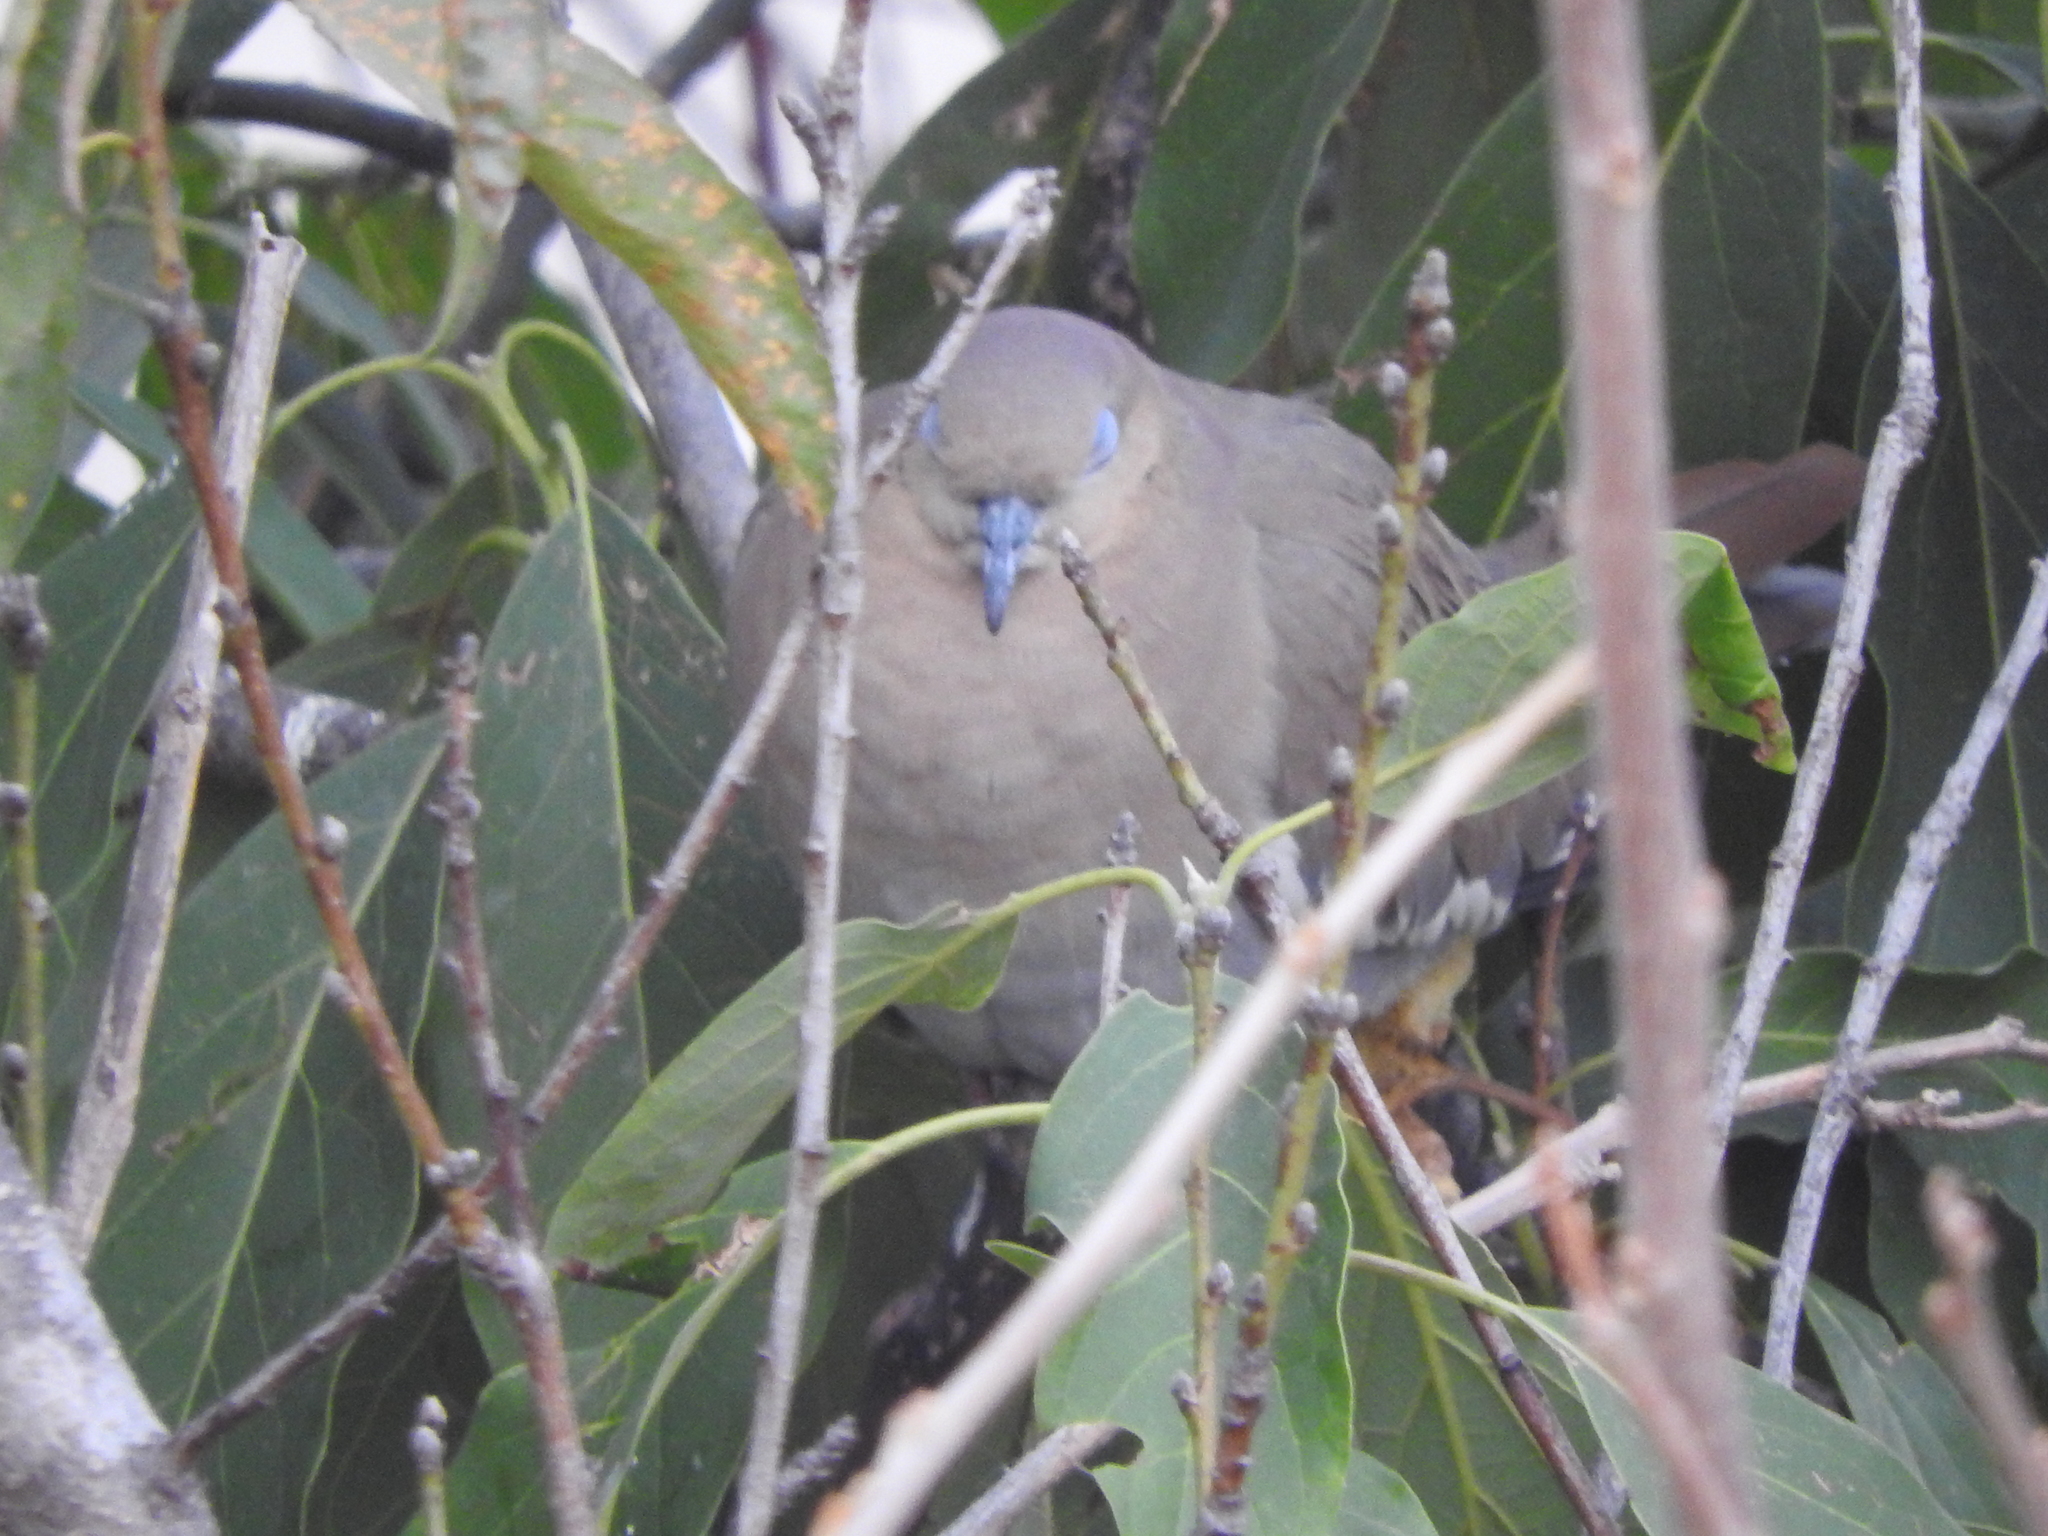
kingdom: Animalia
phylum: Chordata
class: Aves
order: Columbiformes
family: Columbidae
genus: Zenaida
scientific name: Zenaida asiatica
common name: White-winged dove
